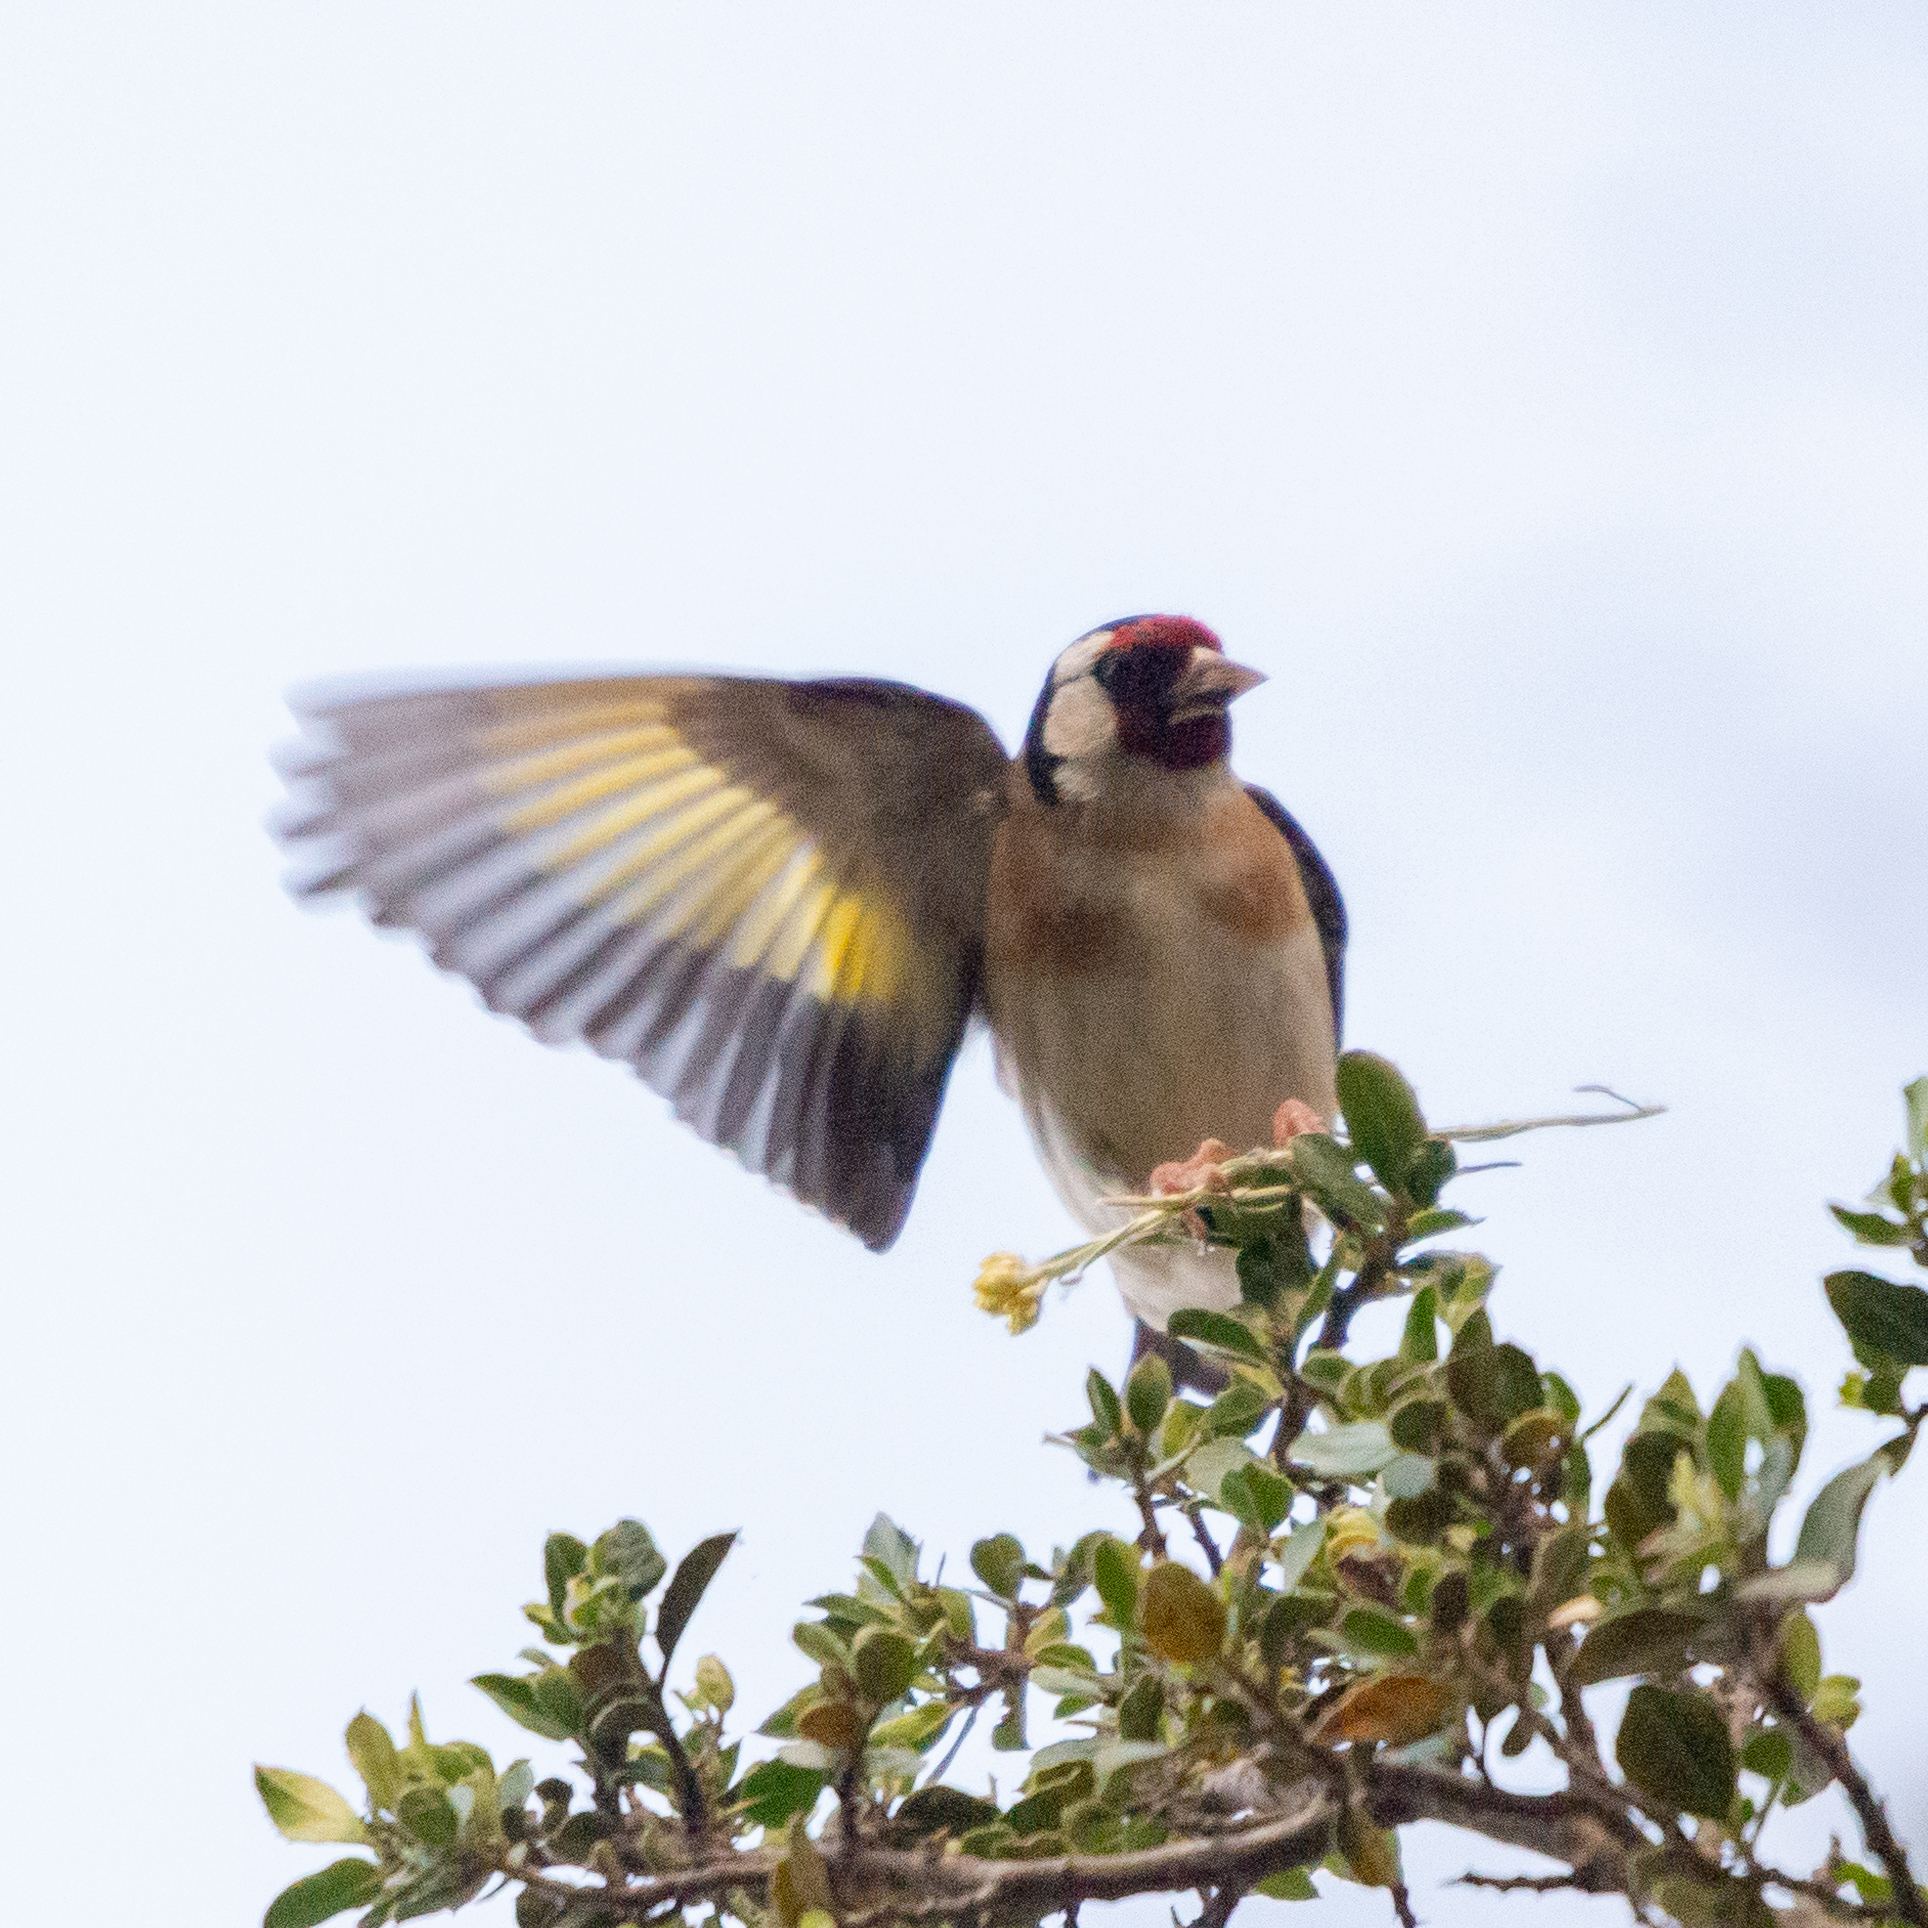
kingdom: Animalia
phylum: Chordata
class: Aves
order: Passeriformes
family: Fringillidae
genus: Carduelis
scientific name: Carduelis carduelis
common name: European goldfinch
